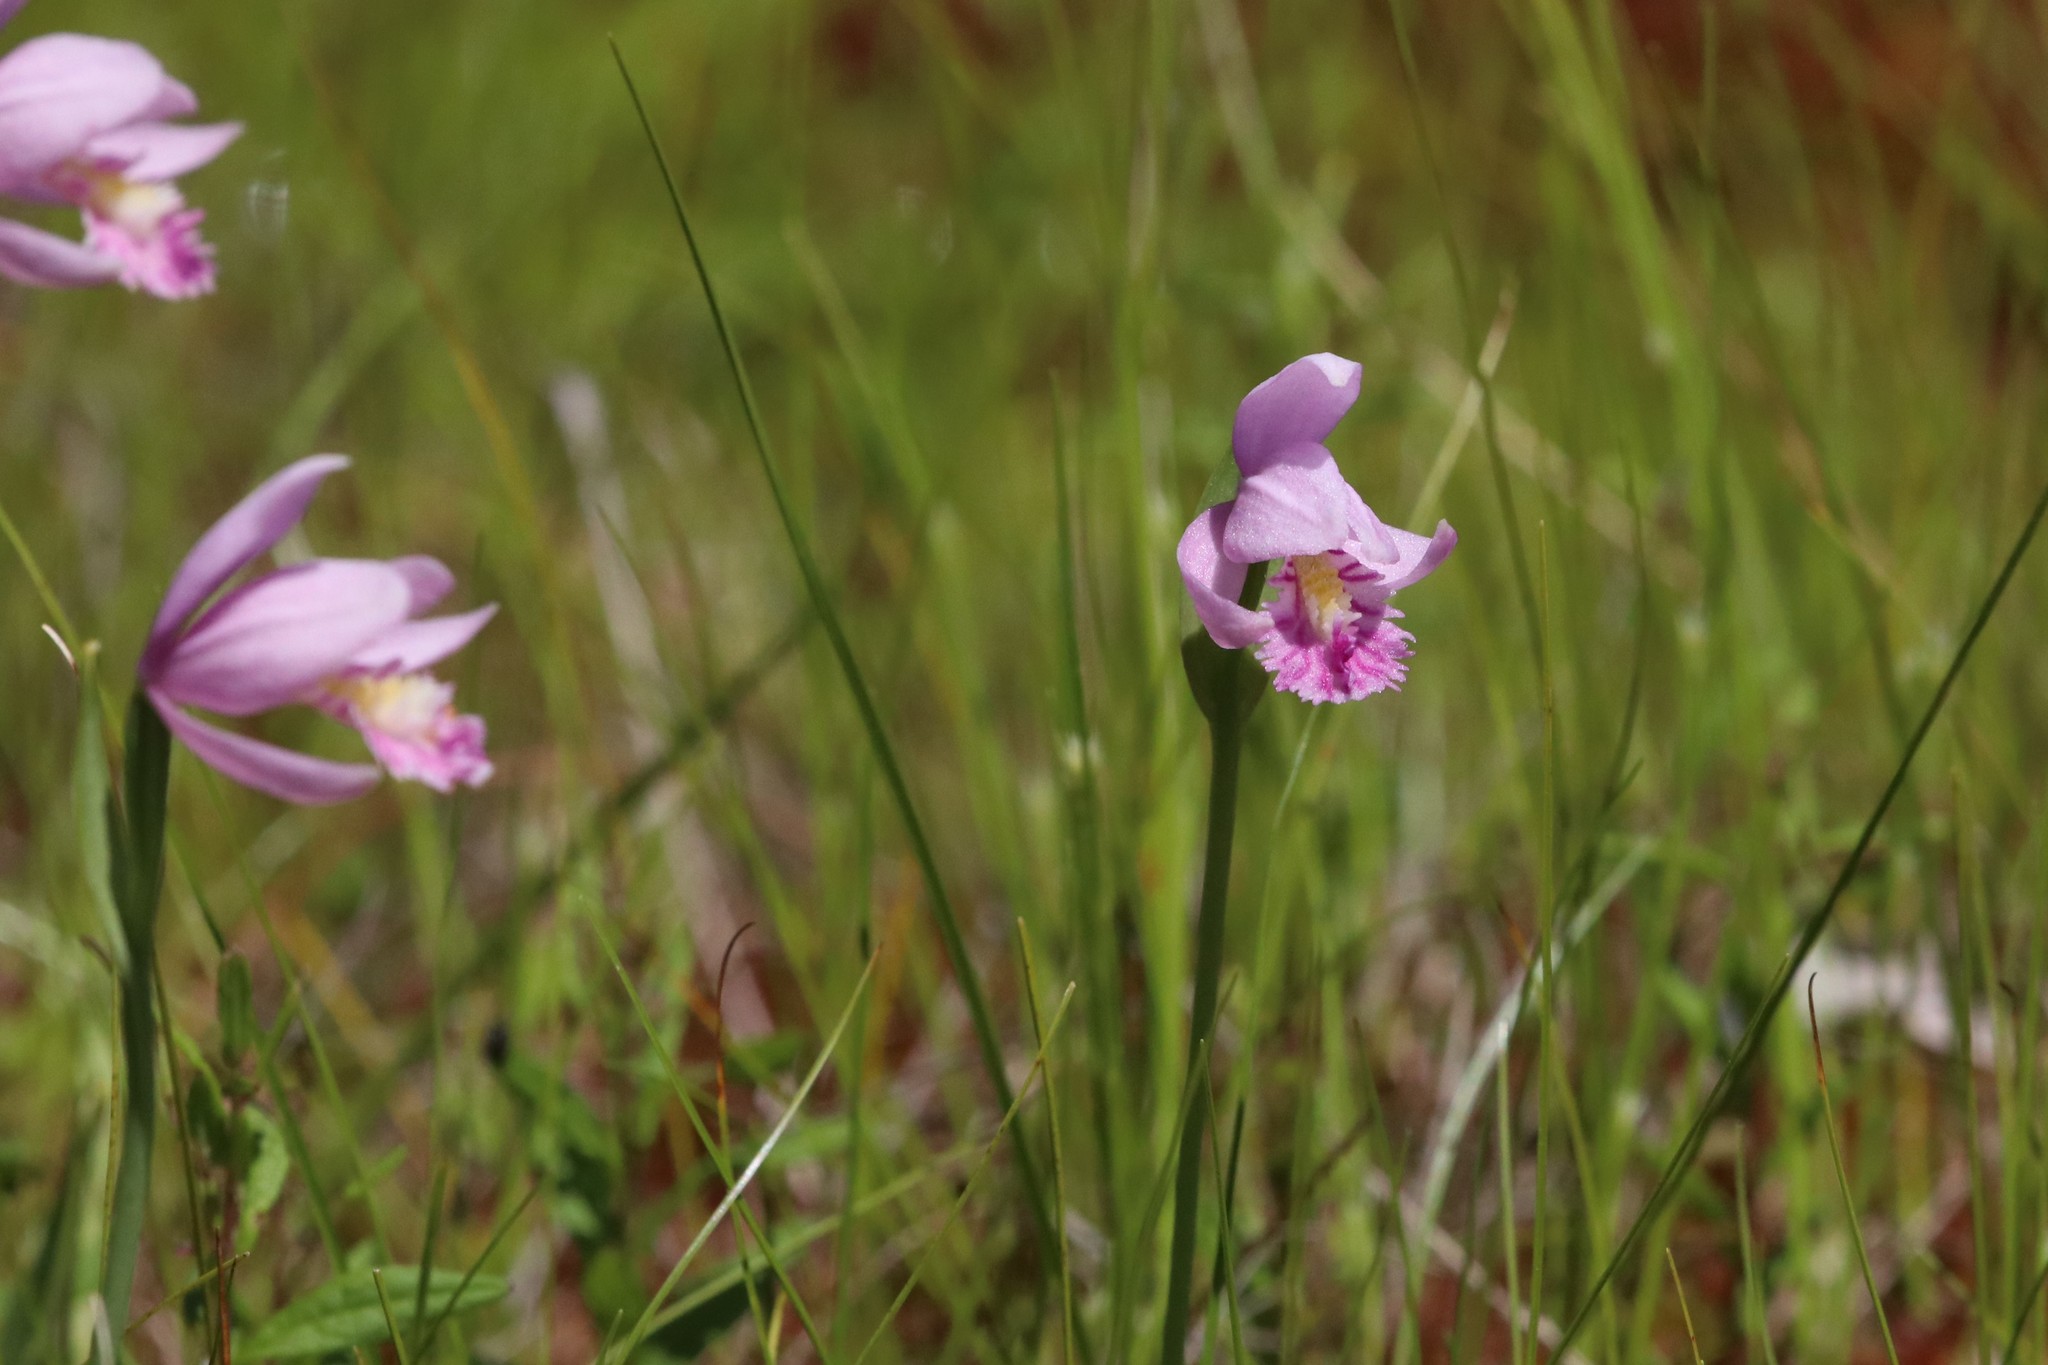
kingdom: Plantae
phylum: Tracheophyta
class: Liliopsida
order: Asparagales
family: Orchidaceae
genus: Pogonia
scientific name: Pogonia ophioglossoides
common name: Rose pogonia
